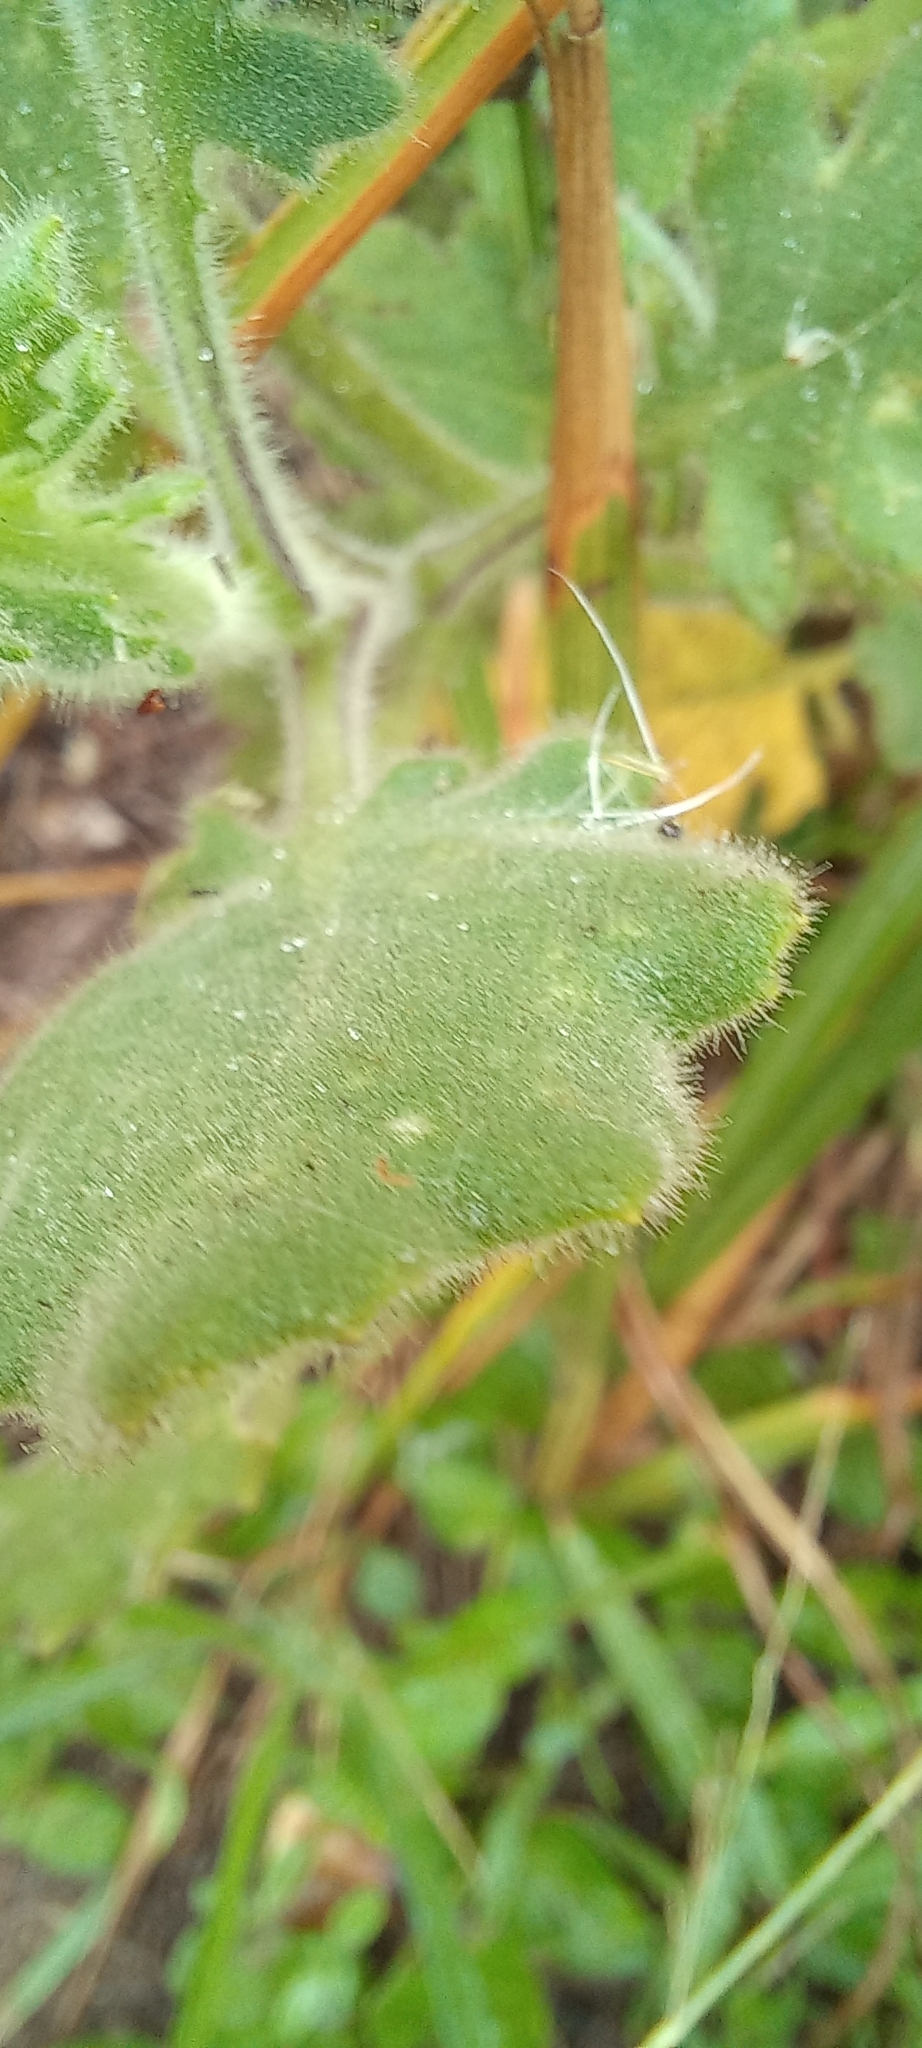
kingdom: Plantae
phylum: Tracheophyta
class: Magnoliopsida
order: Asterales
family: Asteraceae
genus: Senecio
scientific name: Senecio glanduloso-lanosus
